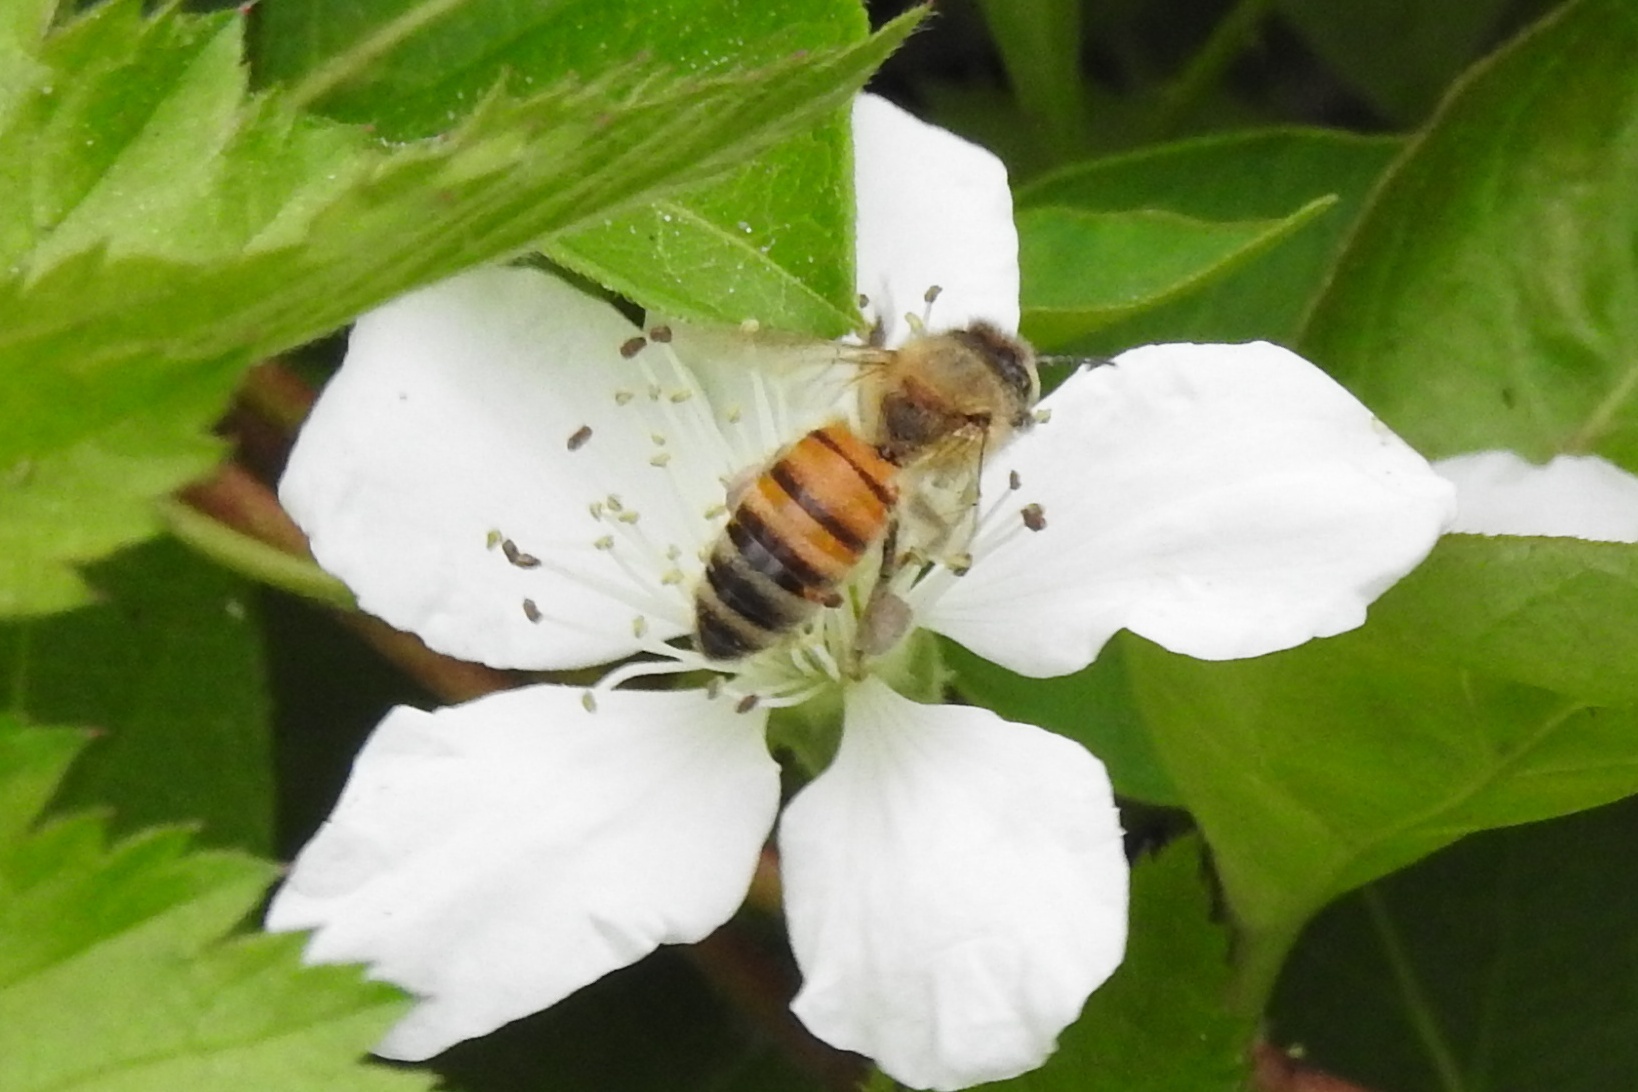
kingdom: Animalia
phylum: Arthropoda
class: Insecta
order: Hymenoptera
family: Apidae
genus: Apis
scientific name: Apis mellifera
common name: Honey bee
